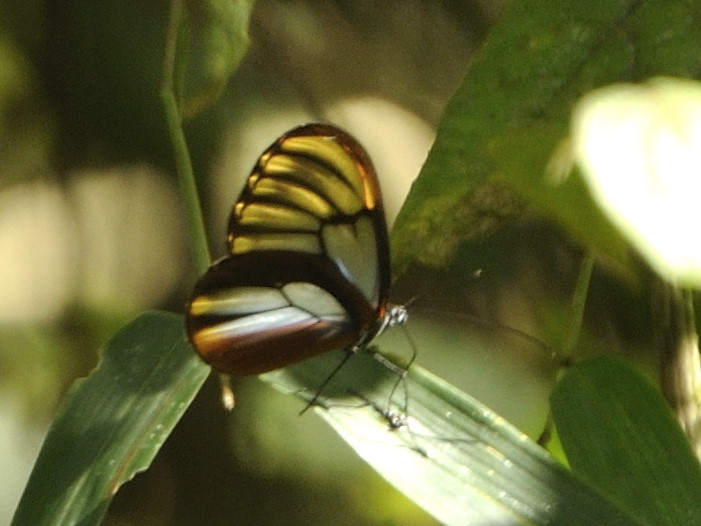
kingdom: Animalia
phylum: Arthropoda
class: Insecta
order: Lepidoptera
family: Nymphalidae
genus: Godyris
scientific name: Godyris duillia
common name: Dazzling glasswing
